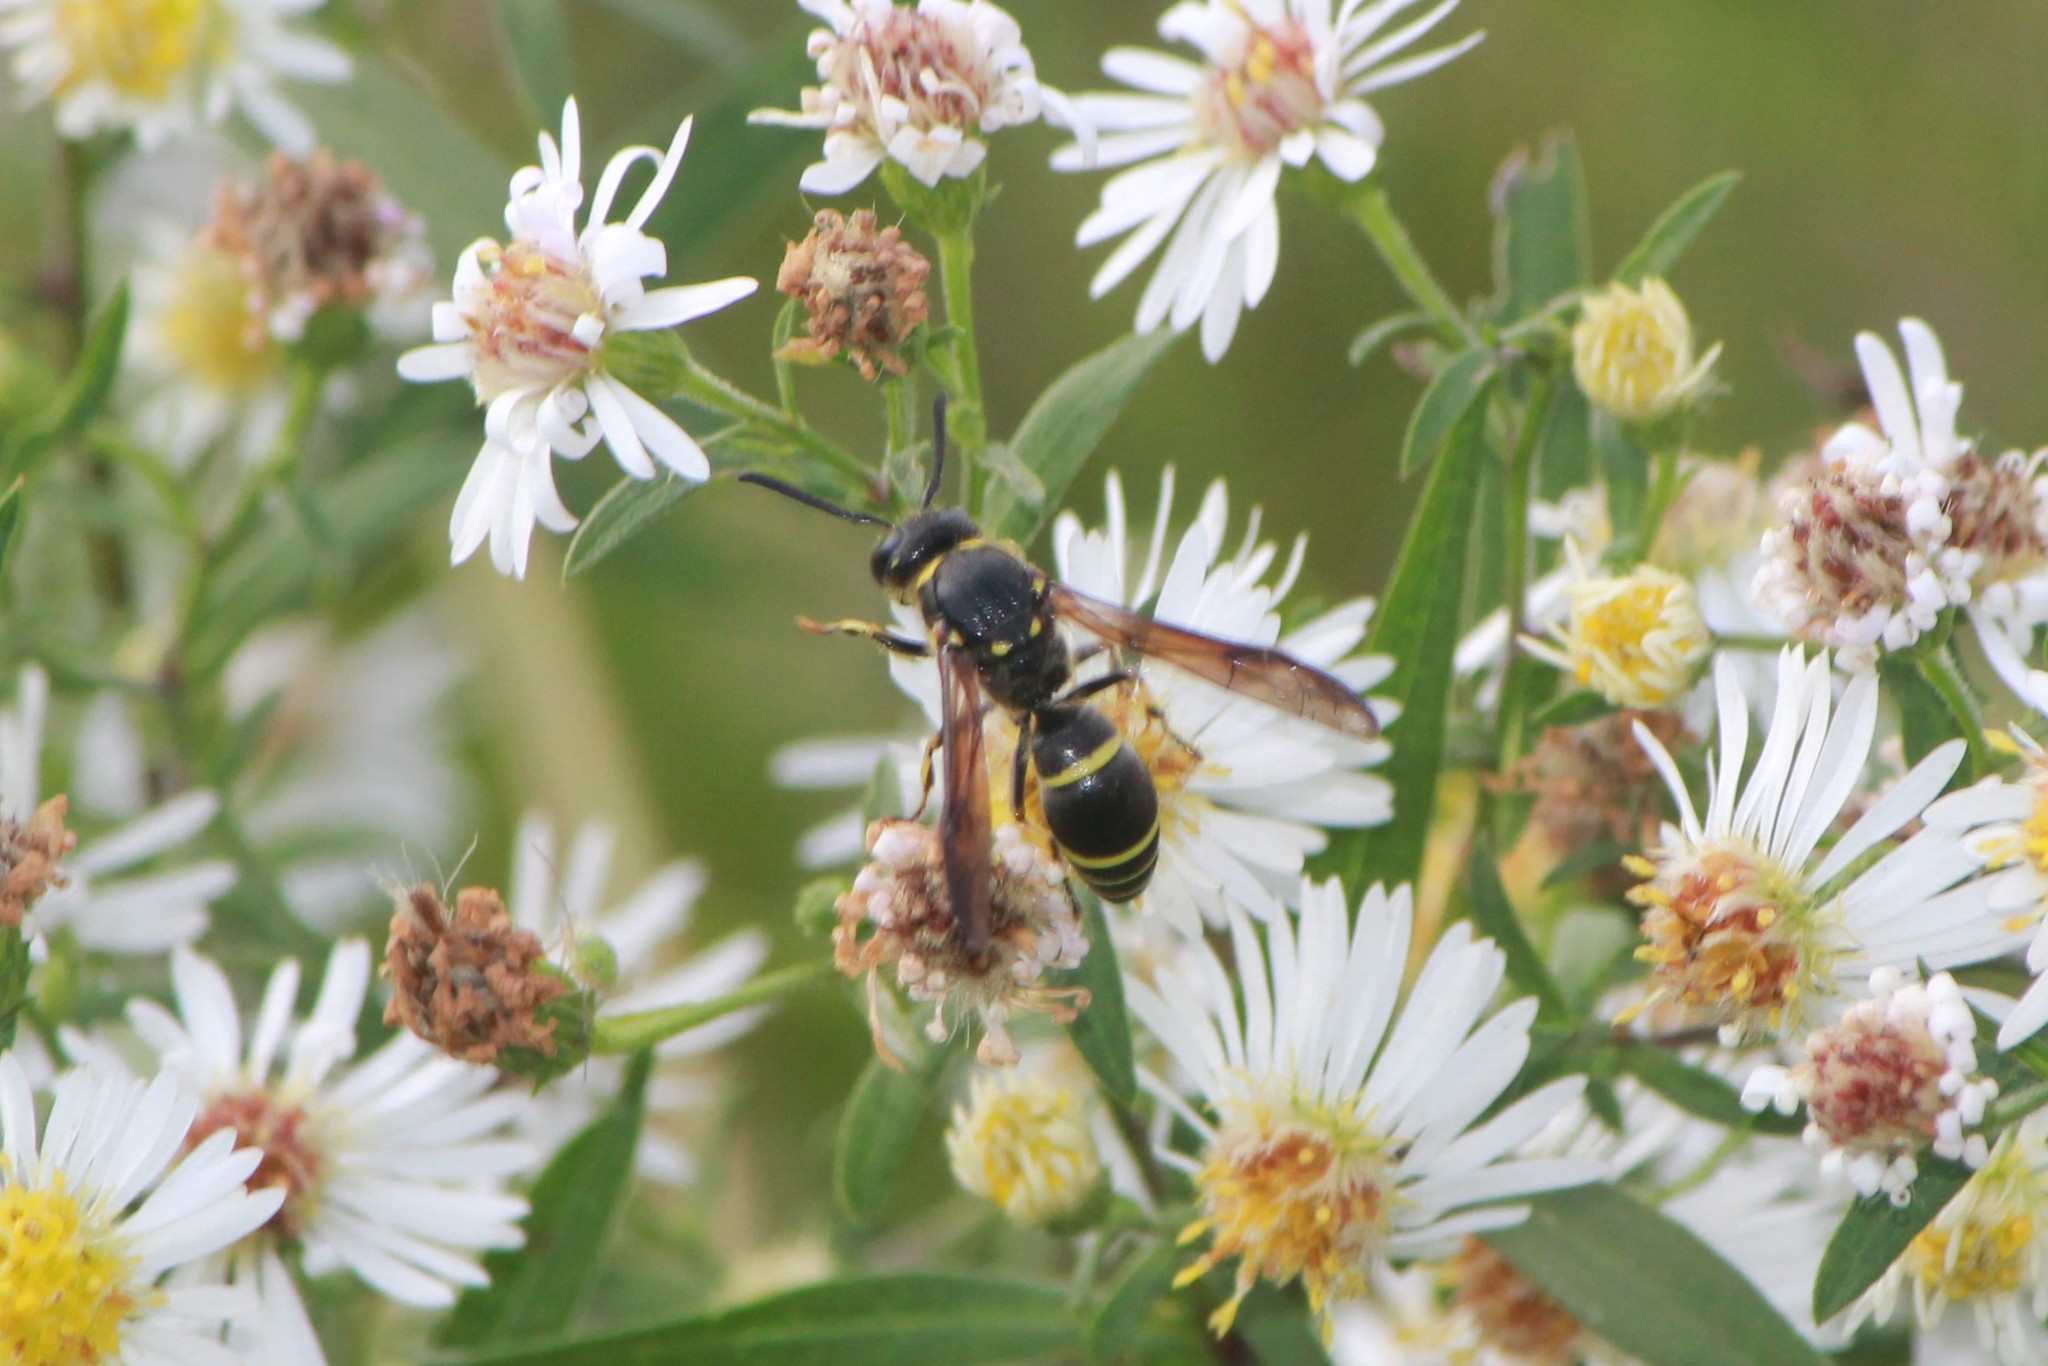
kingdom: Animalia
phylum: Arthropoda
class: Insecta
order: Hymenoptera
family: Vespidae
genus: Ancistrocerus
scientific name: Ancistrocerus
